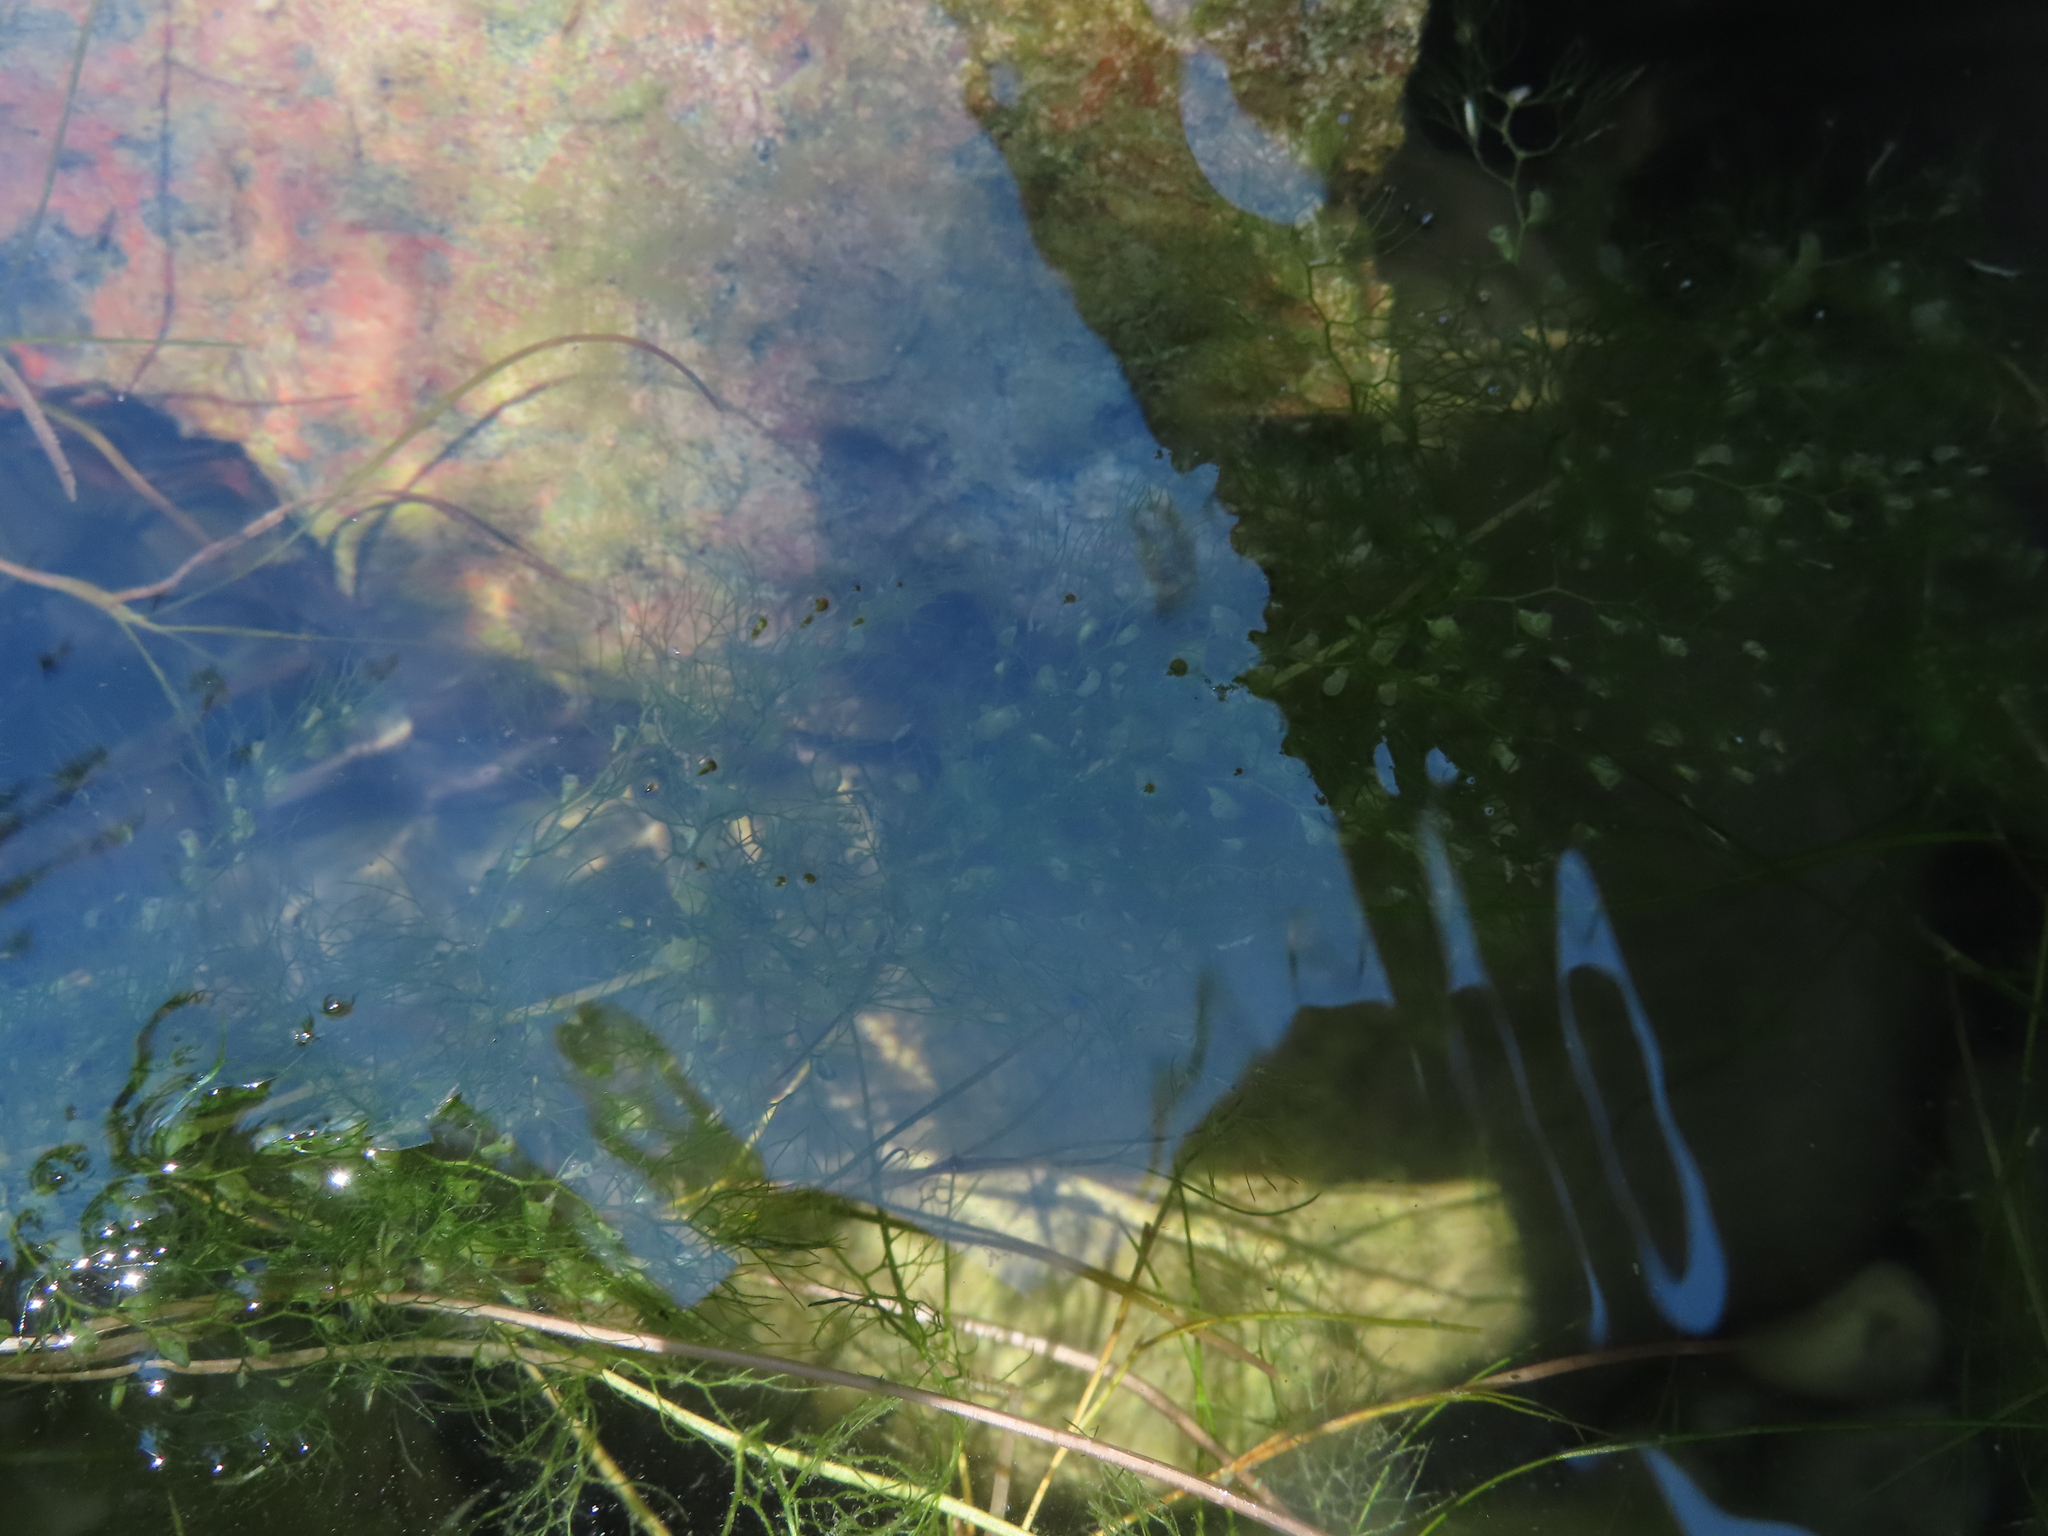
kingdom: Plantae
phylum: Tracheophyta
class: Magnoliopsida
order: Lamiales
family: Lentibulariaceae
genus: Utricularia
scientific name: Utricularia macrorhiza
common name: Common bladderwort
